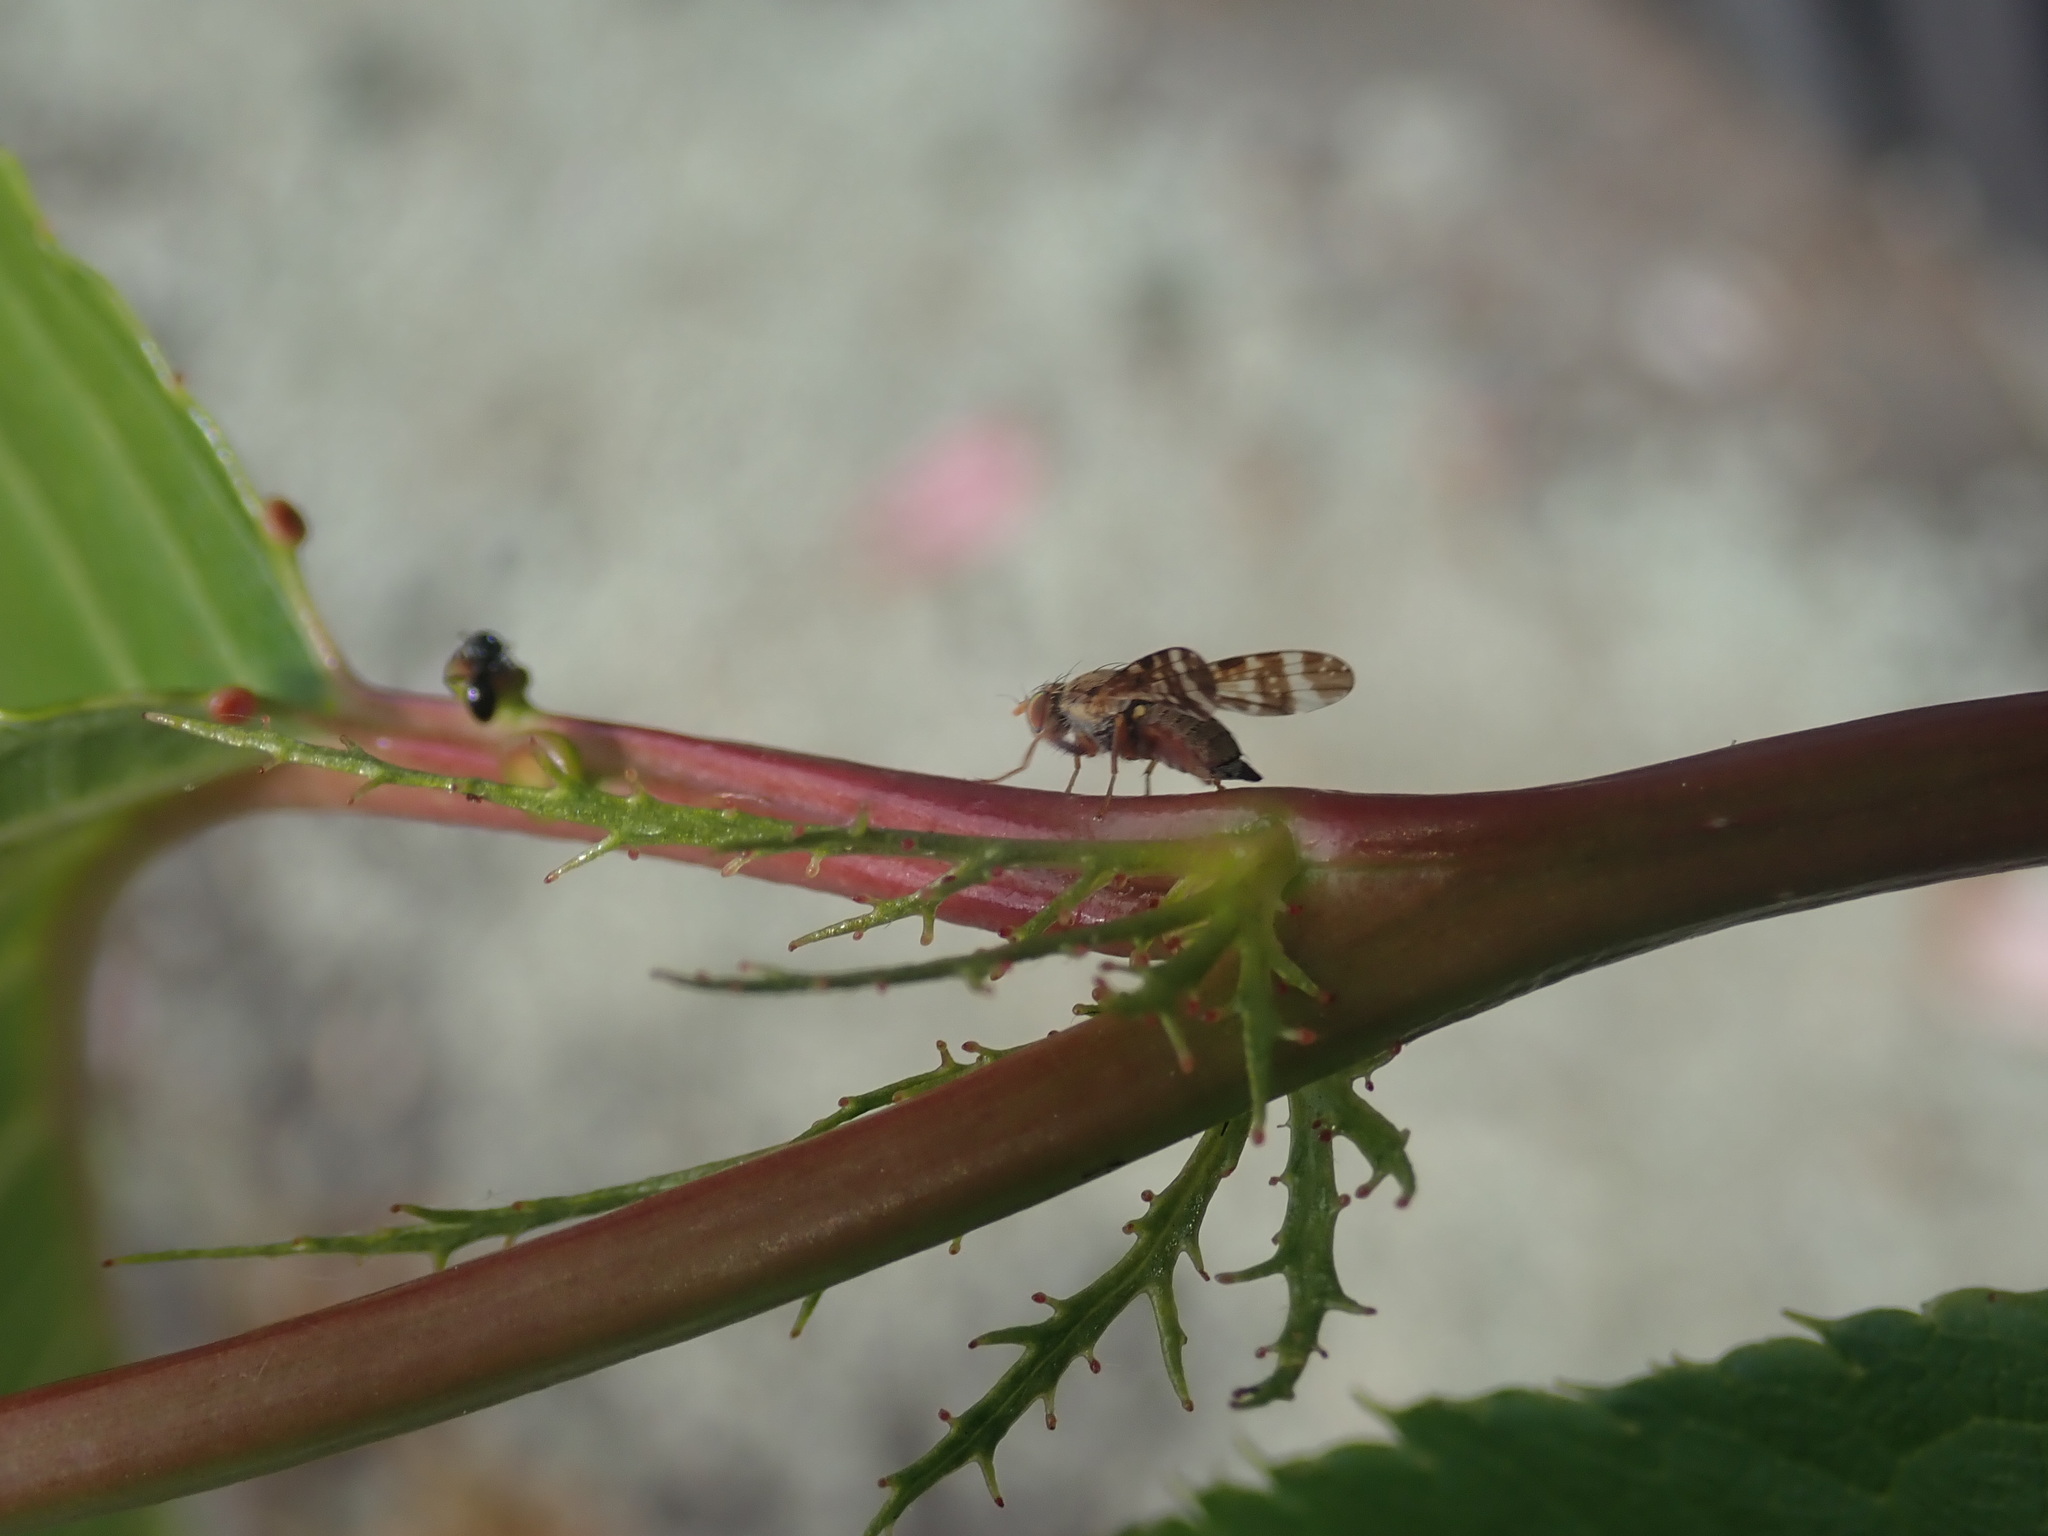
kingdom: Animalia
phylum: Arthropoda
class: Insecta
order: Diptera
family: Tephritidae
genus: Sphenella
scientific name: Sphenella
